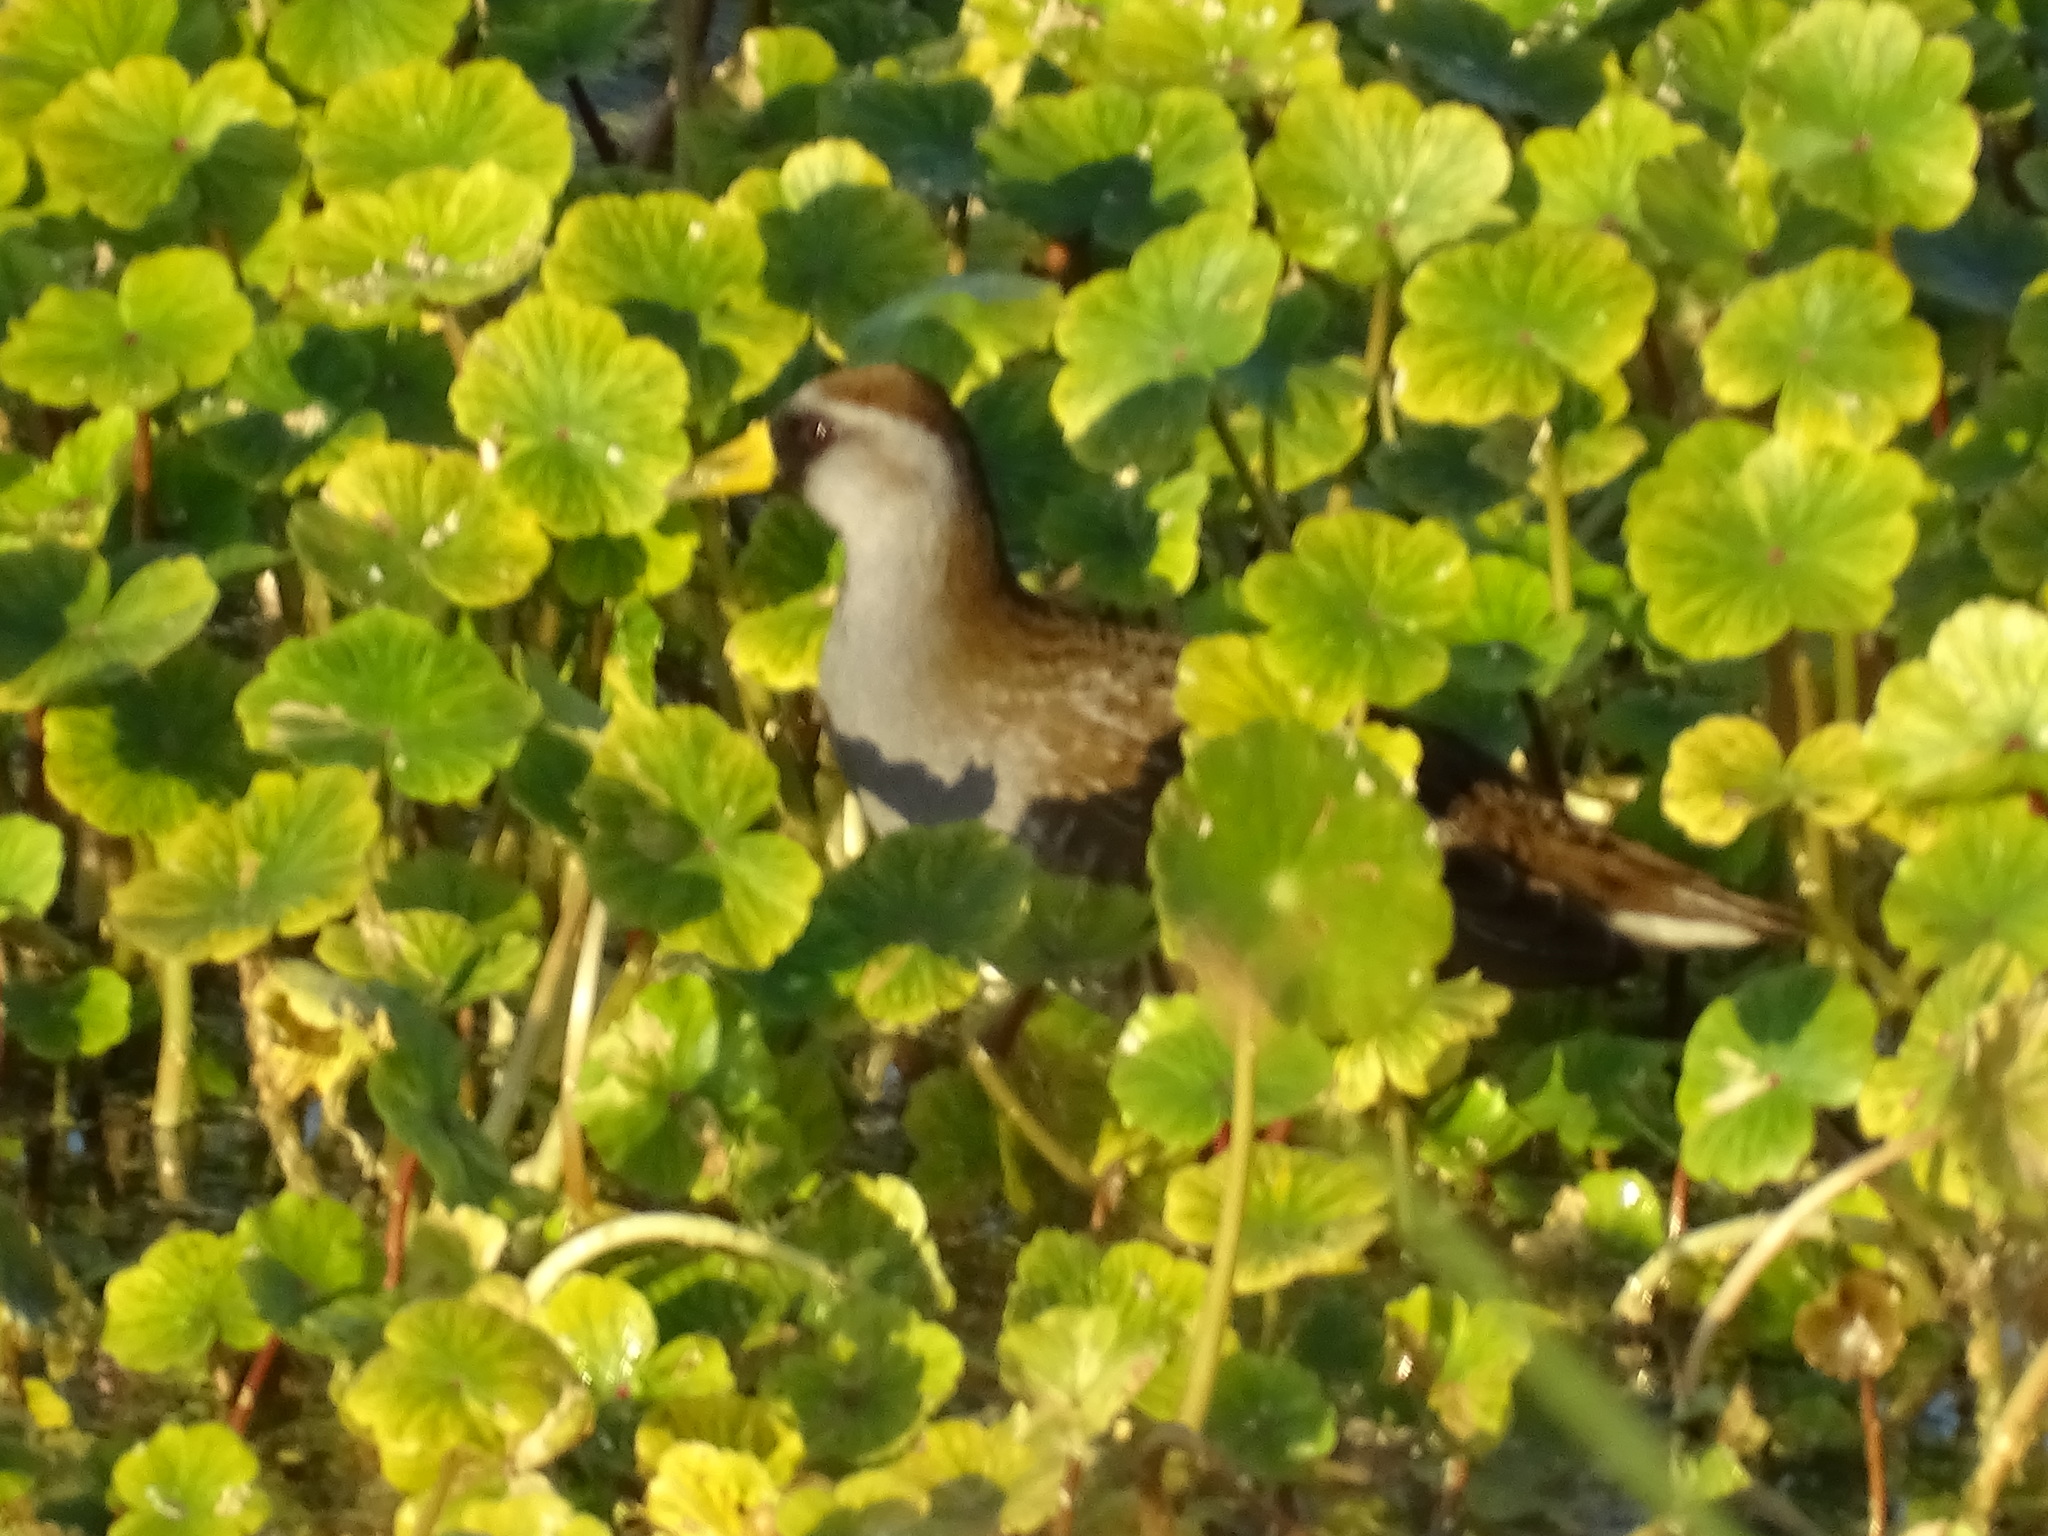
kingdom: Animalia
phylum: Chordata
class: Aves
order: Gruiformes
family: Rallidae
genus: Porzana
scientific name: Porzana carolina
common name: Sora
